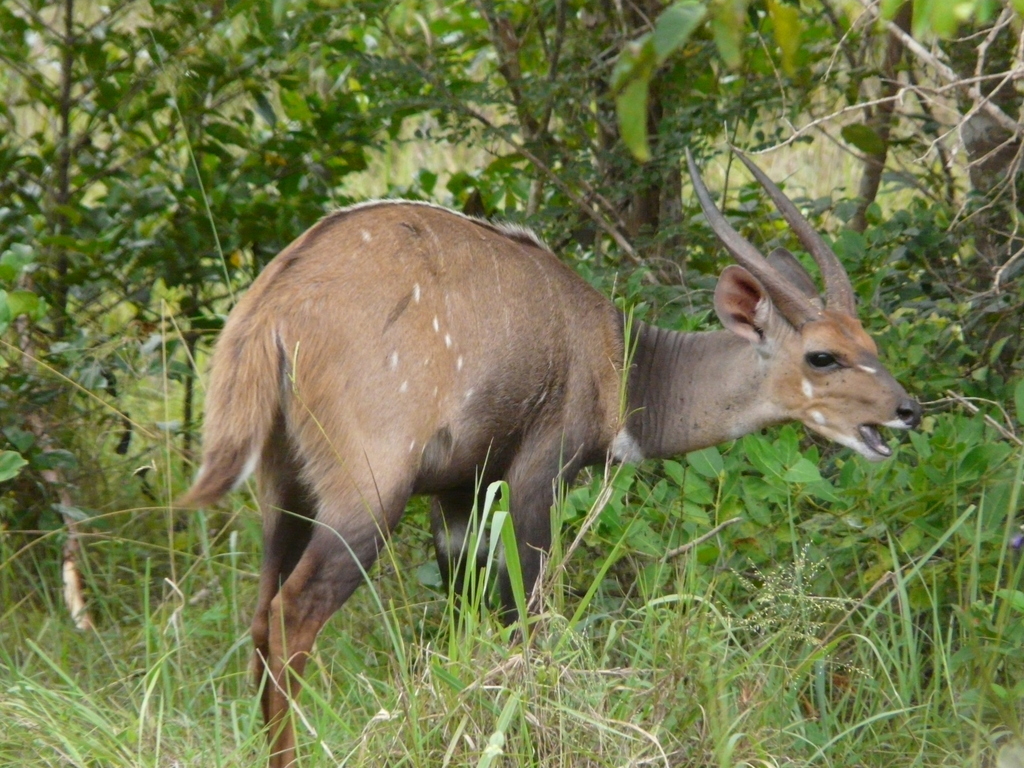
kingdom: Animalia
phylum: Chordata
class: Mammalia
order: Artiodactyla
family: Bovidae
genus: Tragelaphus
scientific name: Tragelaphus scriptus
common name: Bushbuck
